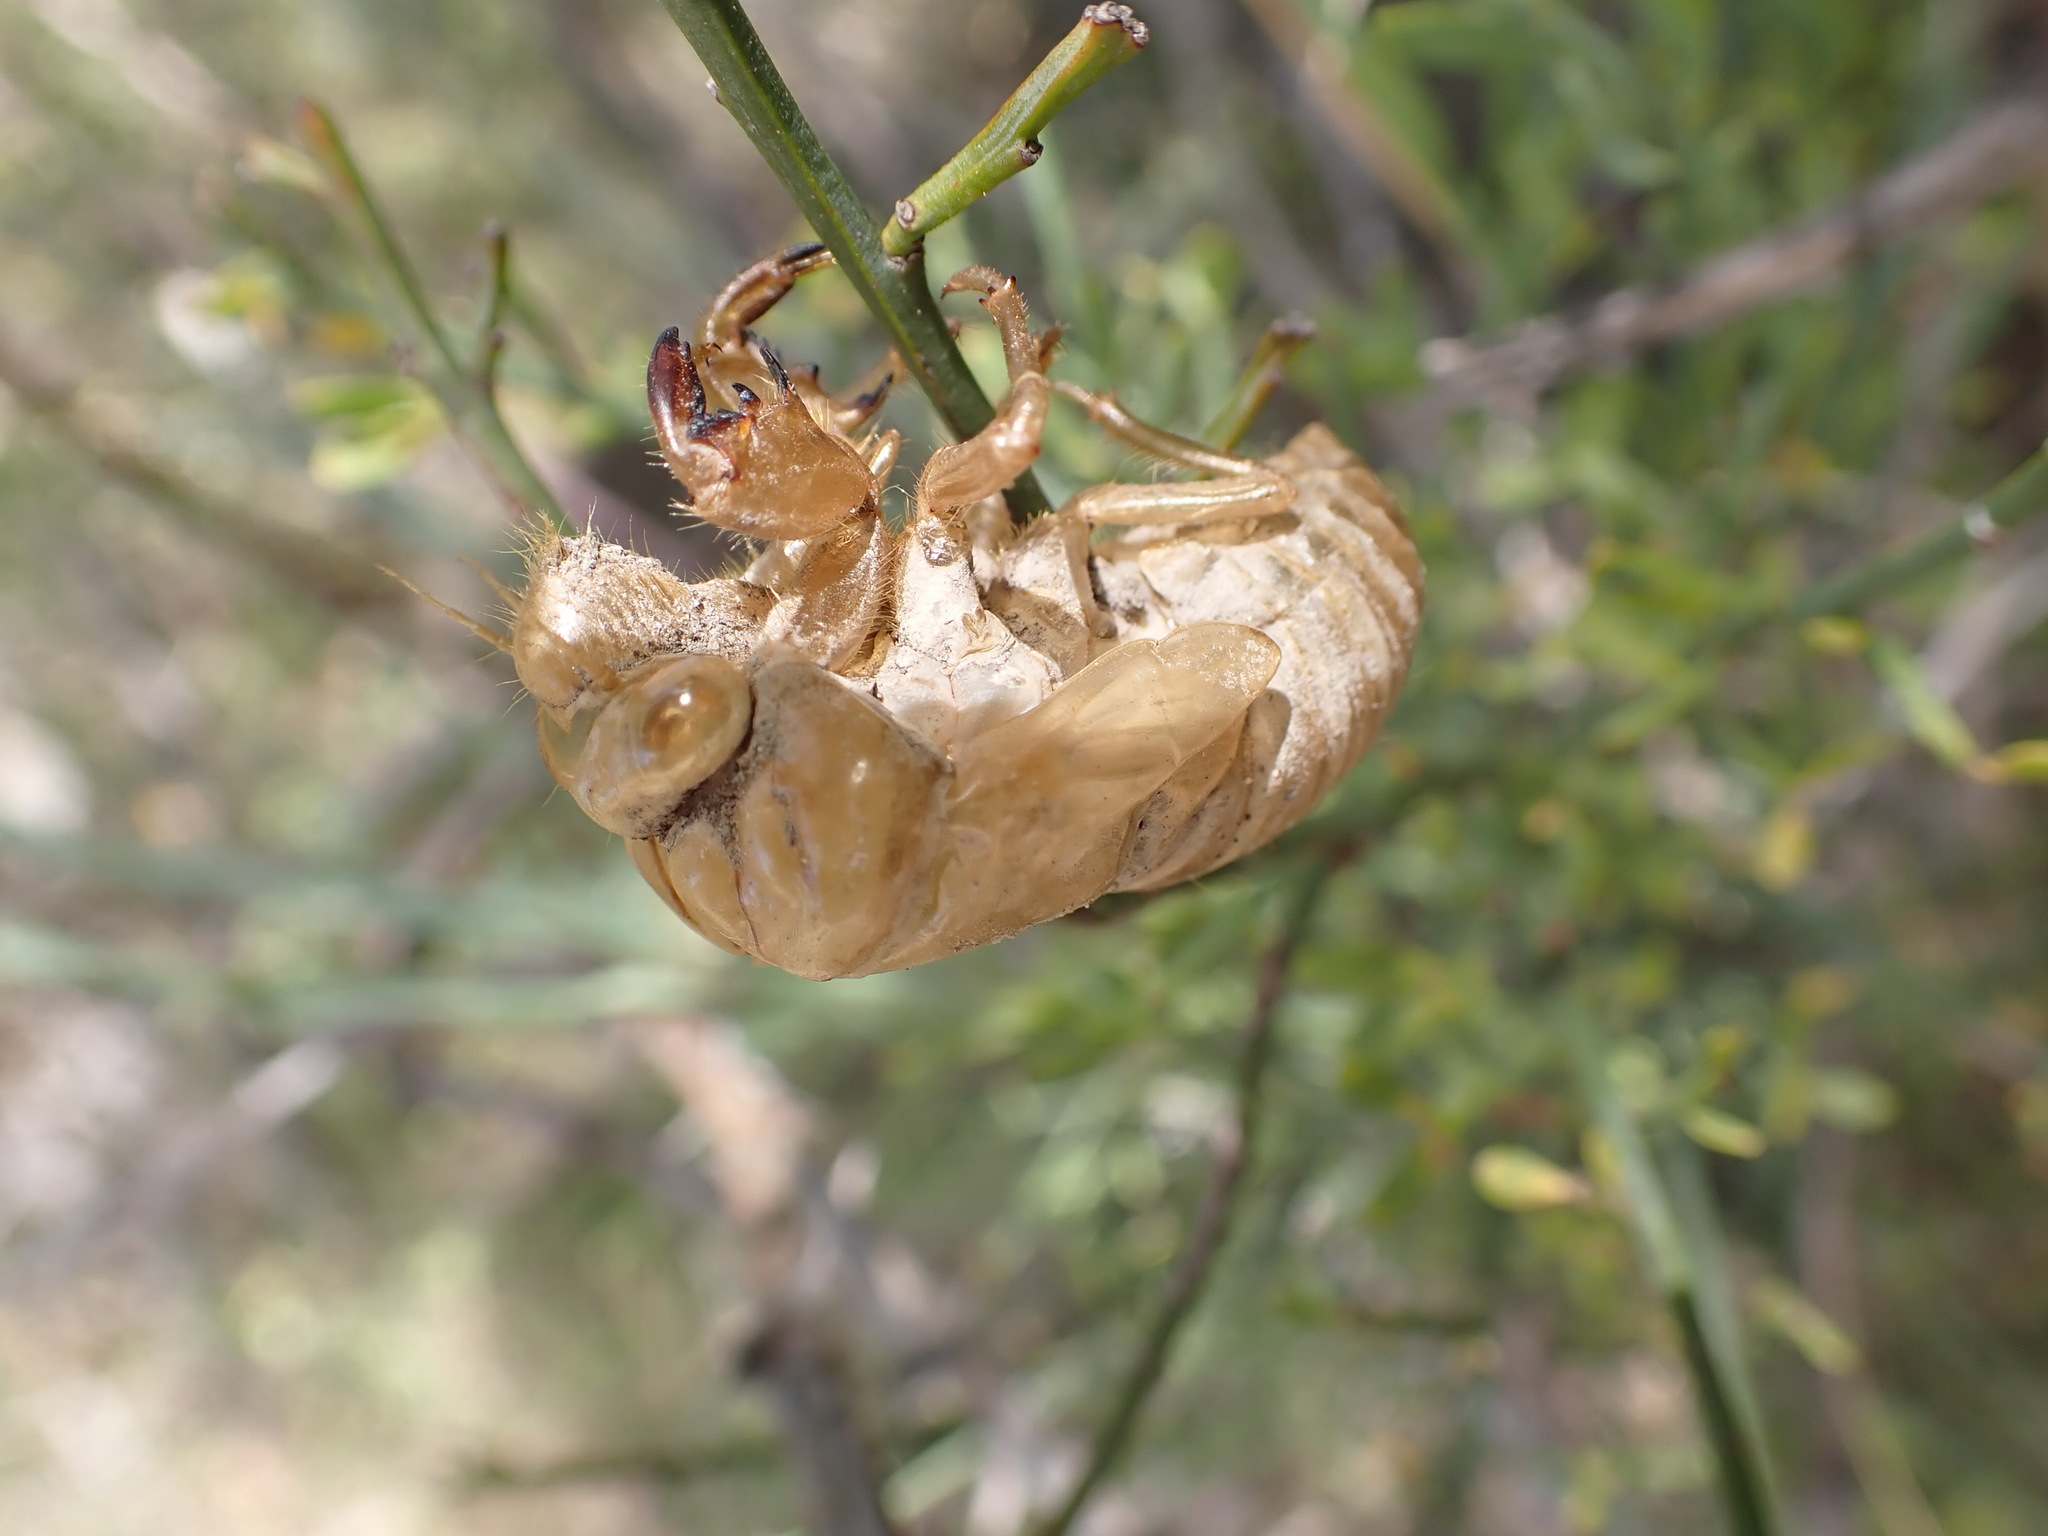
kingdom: Animalia
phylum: Arthropoda
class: Insecta
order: Hemiptera
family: Cicadidae
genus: Lyristes
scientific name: Lyristes plebejus
